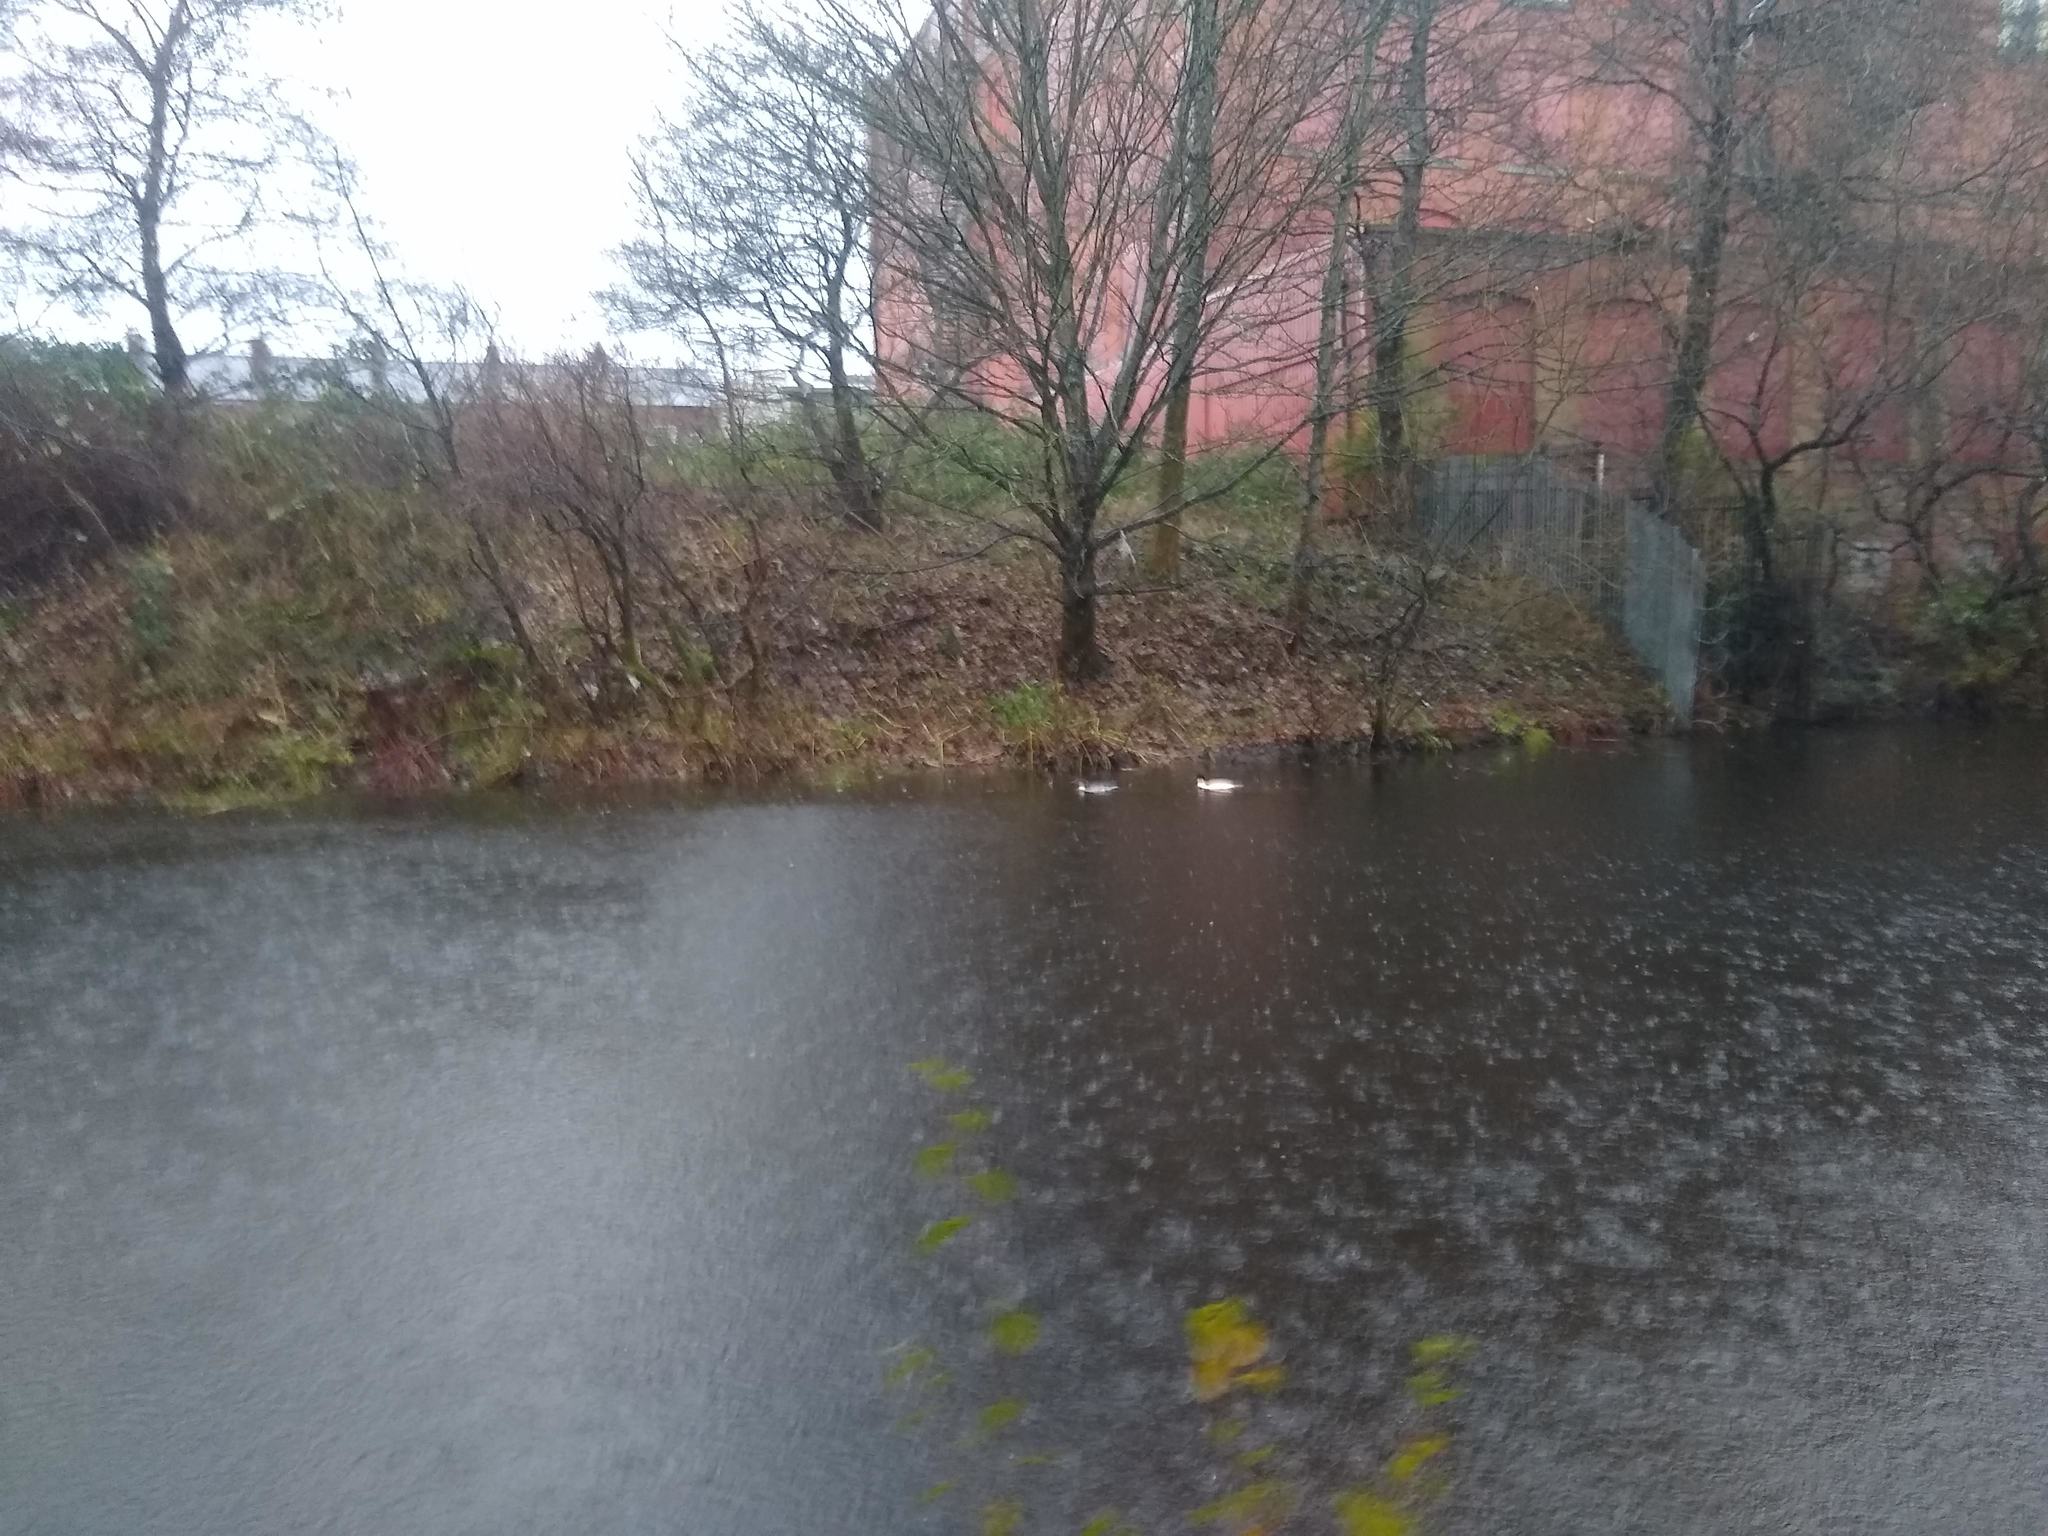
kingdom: Animalia
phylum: Chordata
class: Aves
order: Anseriformes
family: Anatidae
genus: Mergus
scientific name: Mergus merganser
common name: Common merganser
